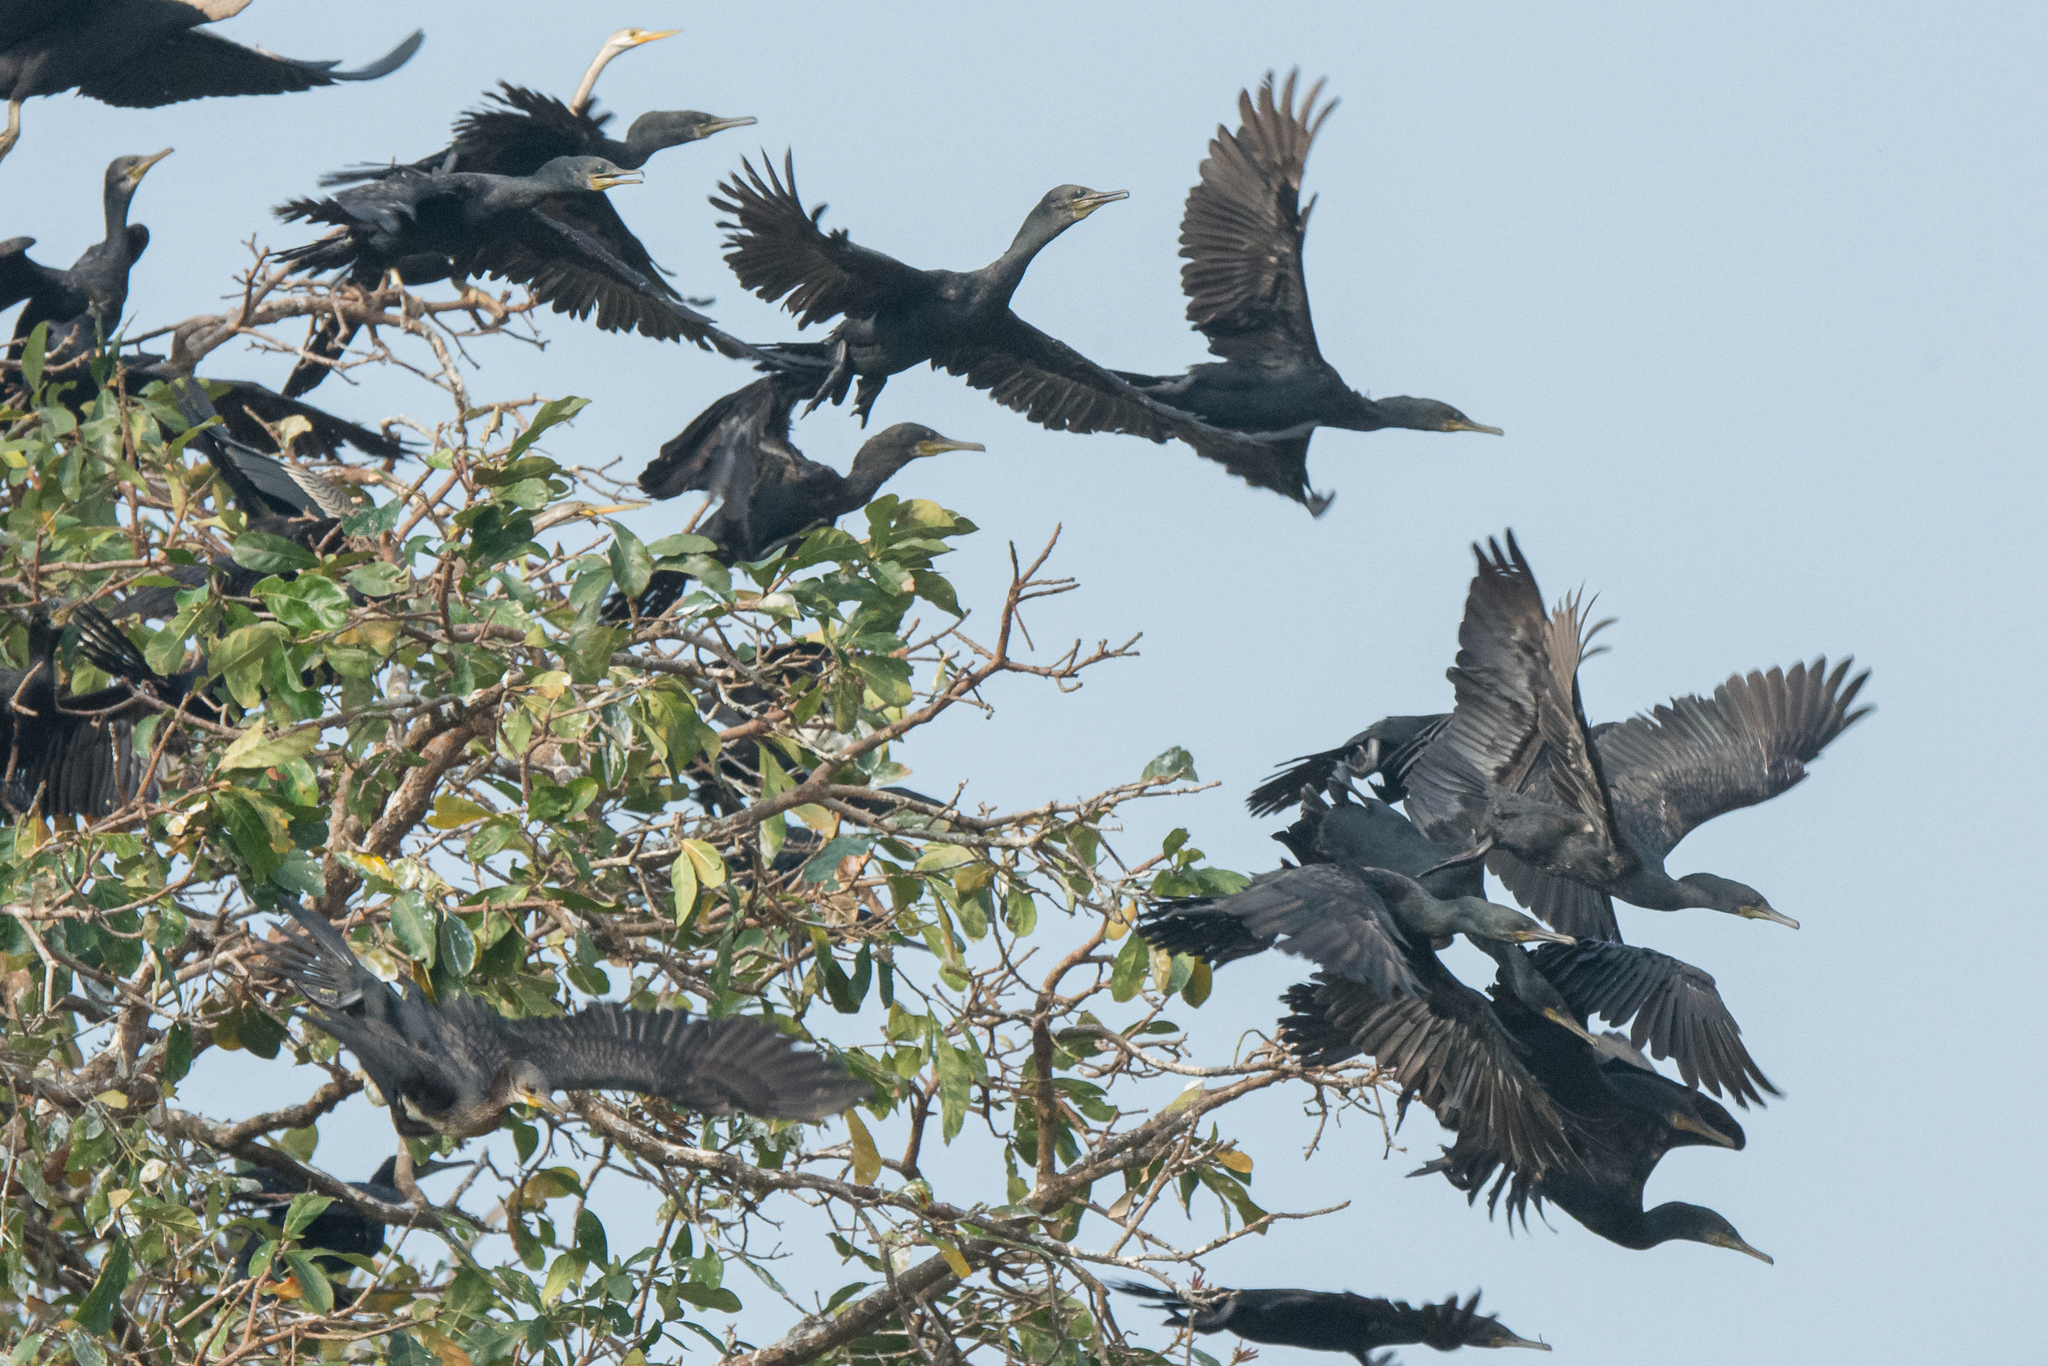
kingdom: Animalia
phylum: Chordata
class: Aves
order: Suliformes
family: Phalacrocoracidae
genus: Phalacrocorax
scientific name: Phalacrocorax fuscicollis
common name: Indian cormorant
